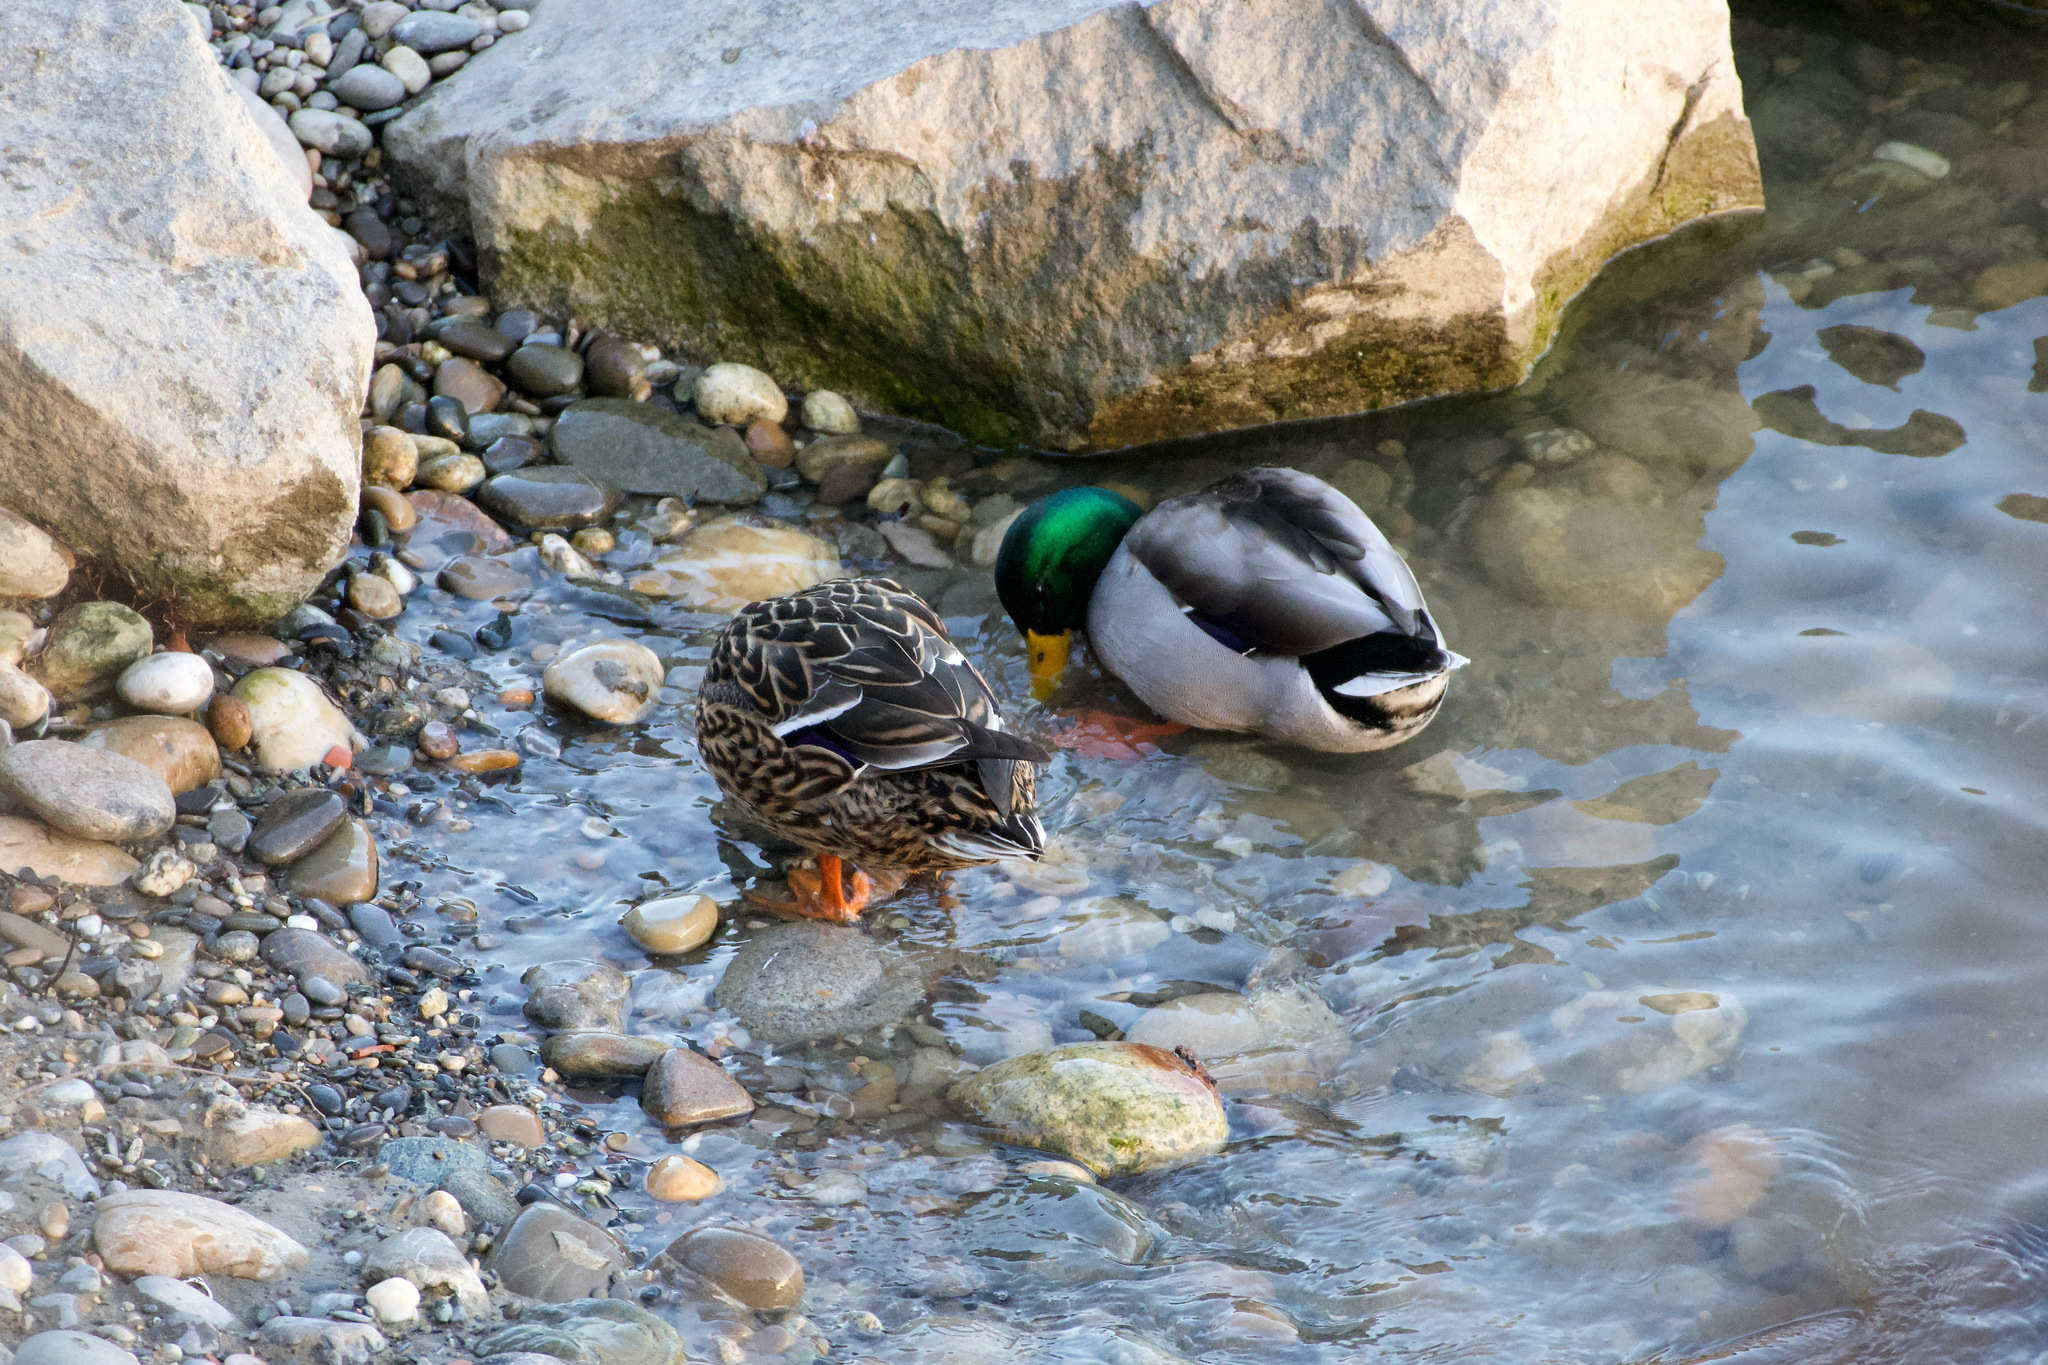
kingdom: Animalia
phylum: Chordata
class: Aves
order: Anseriformes
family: Anatidae
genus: Anas
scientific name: Anas platyrhynchos
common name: Mallard
